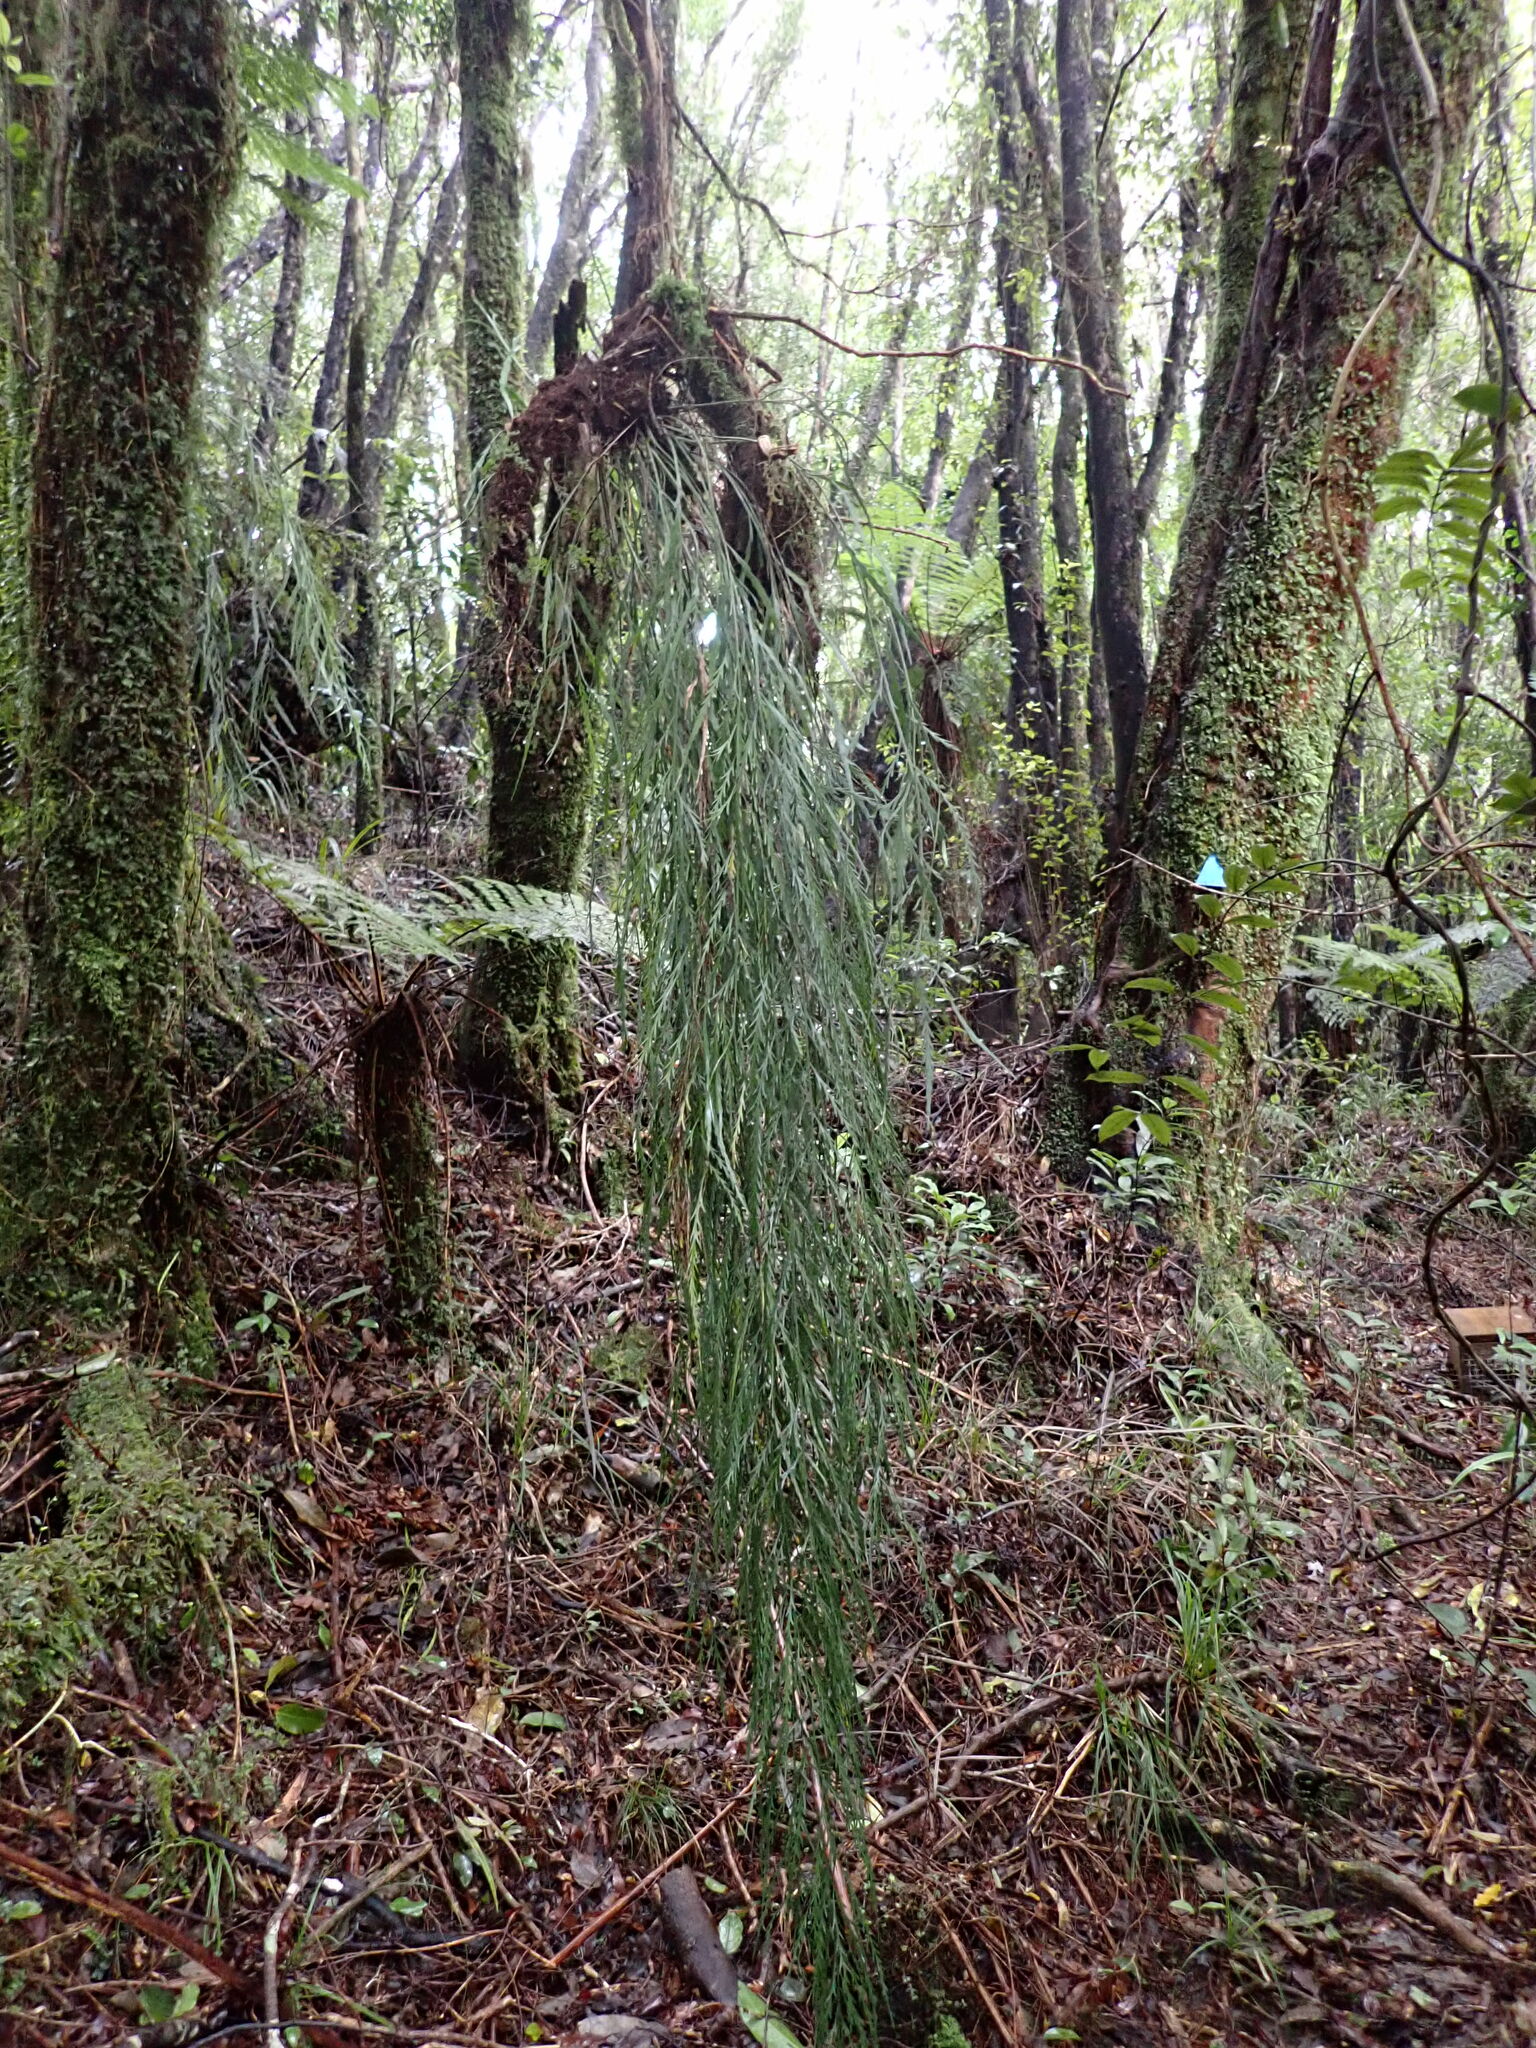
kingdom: Plantae
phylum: Tracheophyta
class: Polypodiopsida
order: Polypodiales
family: Aspleniaceae
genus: Asplenium
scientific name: Asplenium flaccidum
